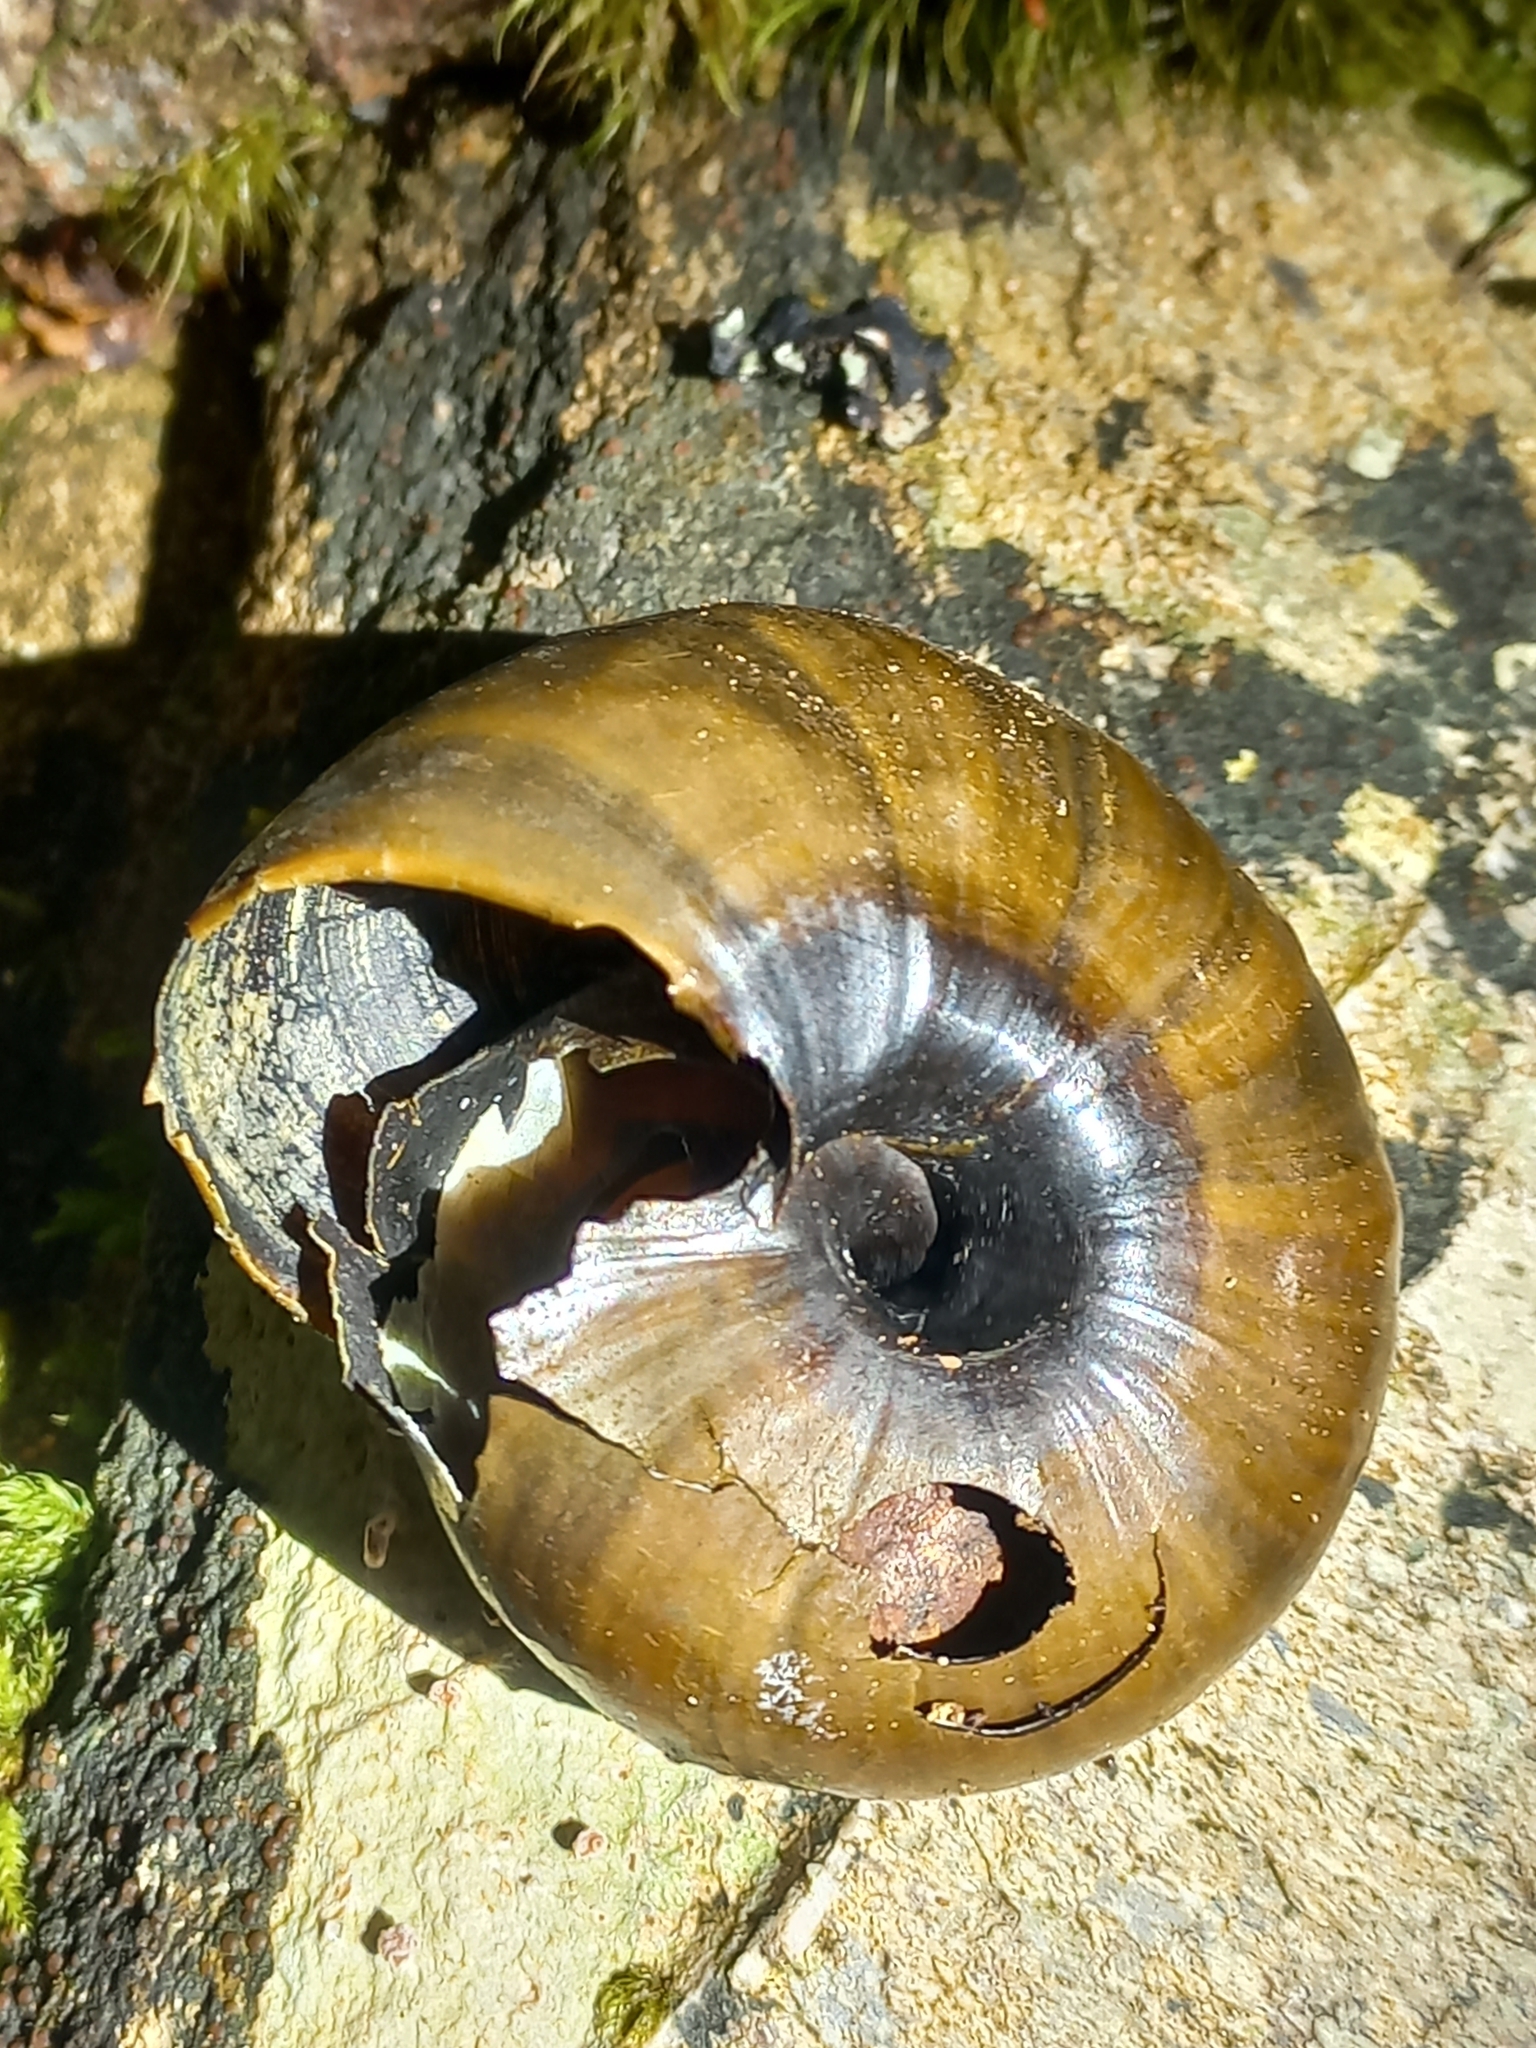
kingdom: Animalia
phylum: Mollusca
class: Gastropoda
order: Stylommatophora
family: Rhytididae
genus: Powelliphanta
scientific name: Powelliphanta hochstetteri
